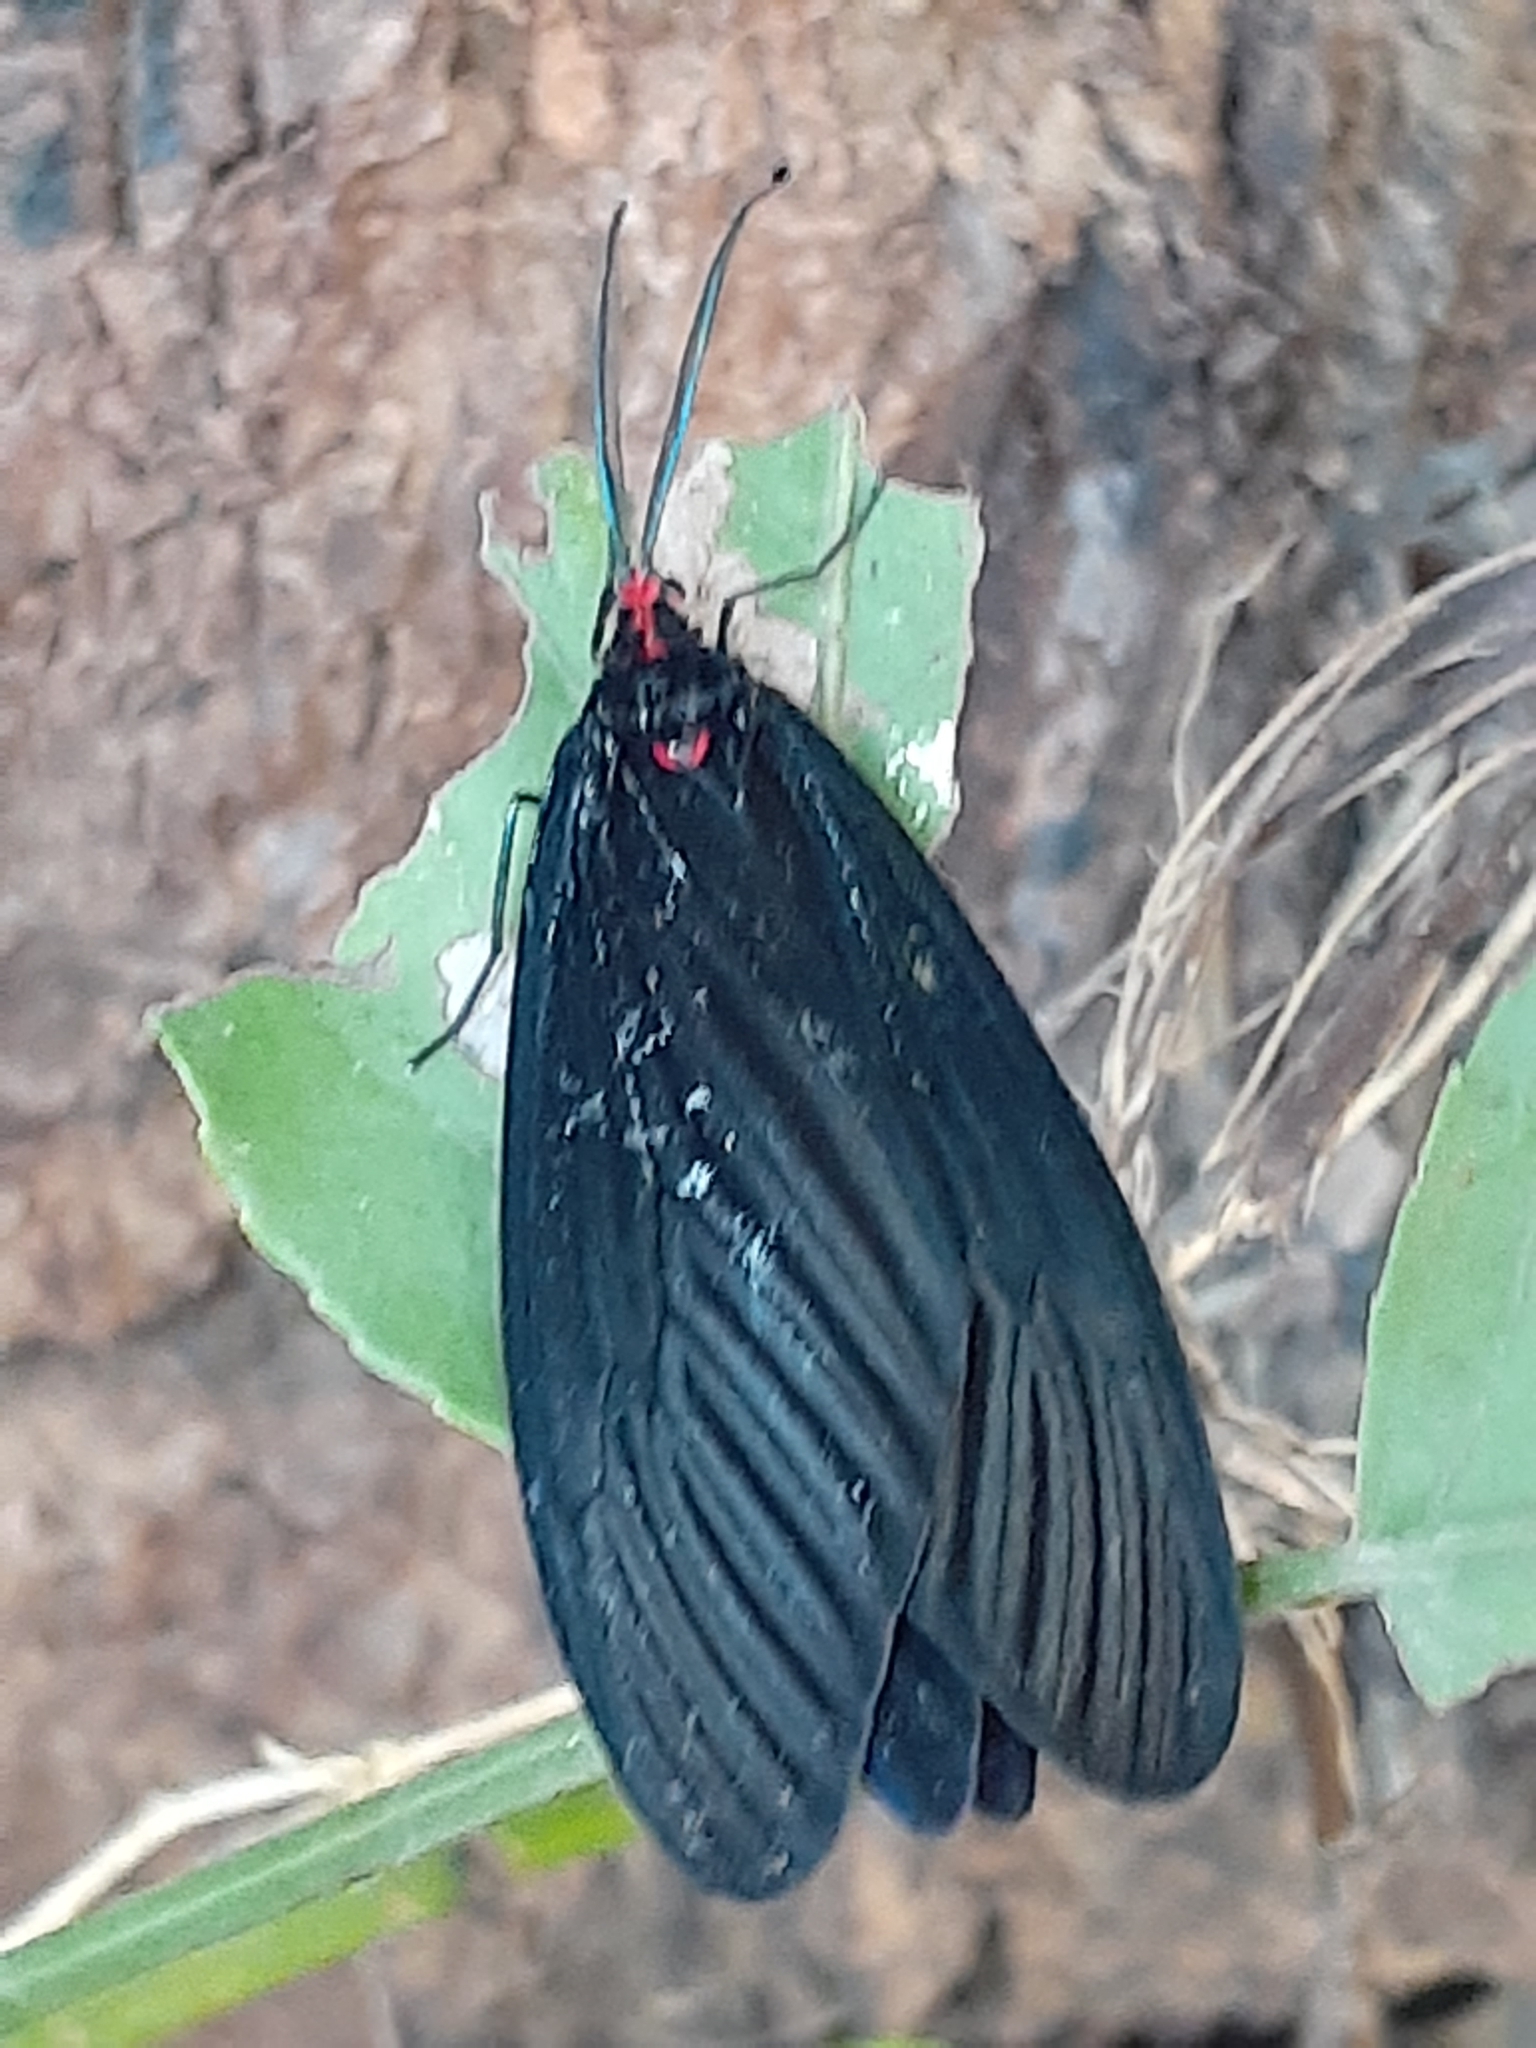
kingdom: Animalia
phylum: Arthropoda
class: Insecta
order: Lepidoptera
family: Zygaenidae
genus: Histia
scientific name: Histia flabellicornis
